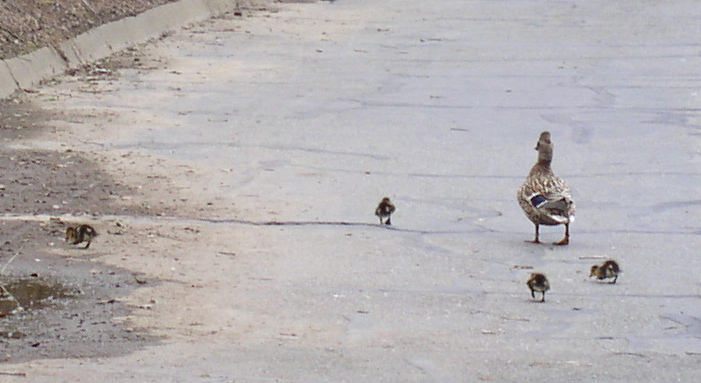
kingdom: Animalia
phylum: Chordata
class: Aves
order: Anseriformes
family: Anatidae
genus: Anas
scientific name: Anas platyrhynchos
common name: Mallard
